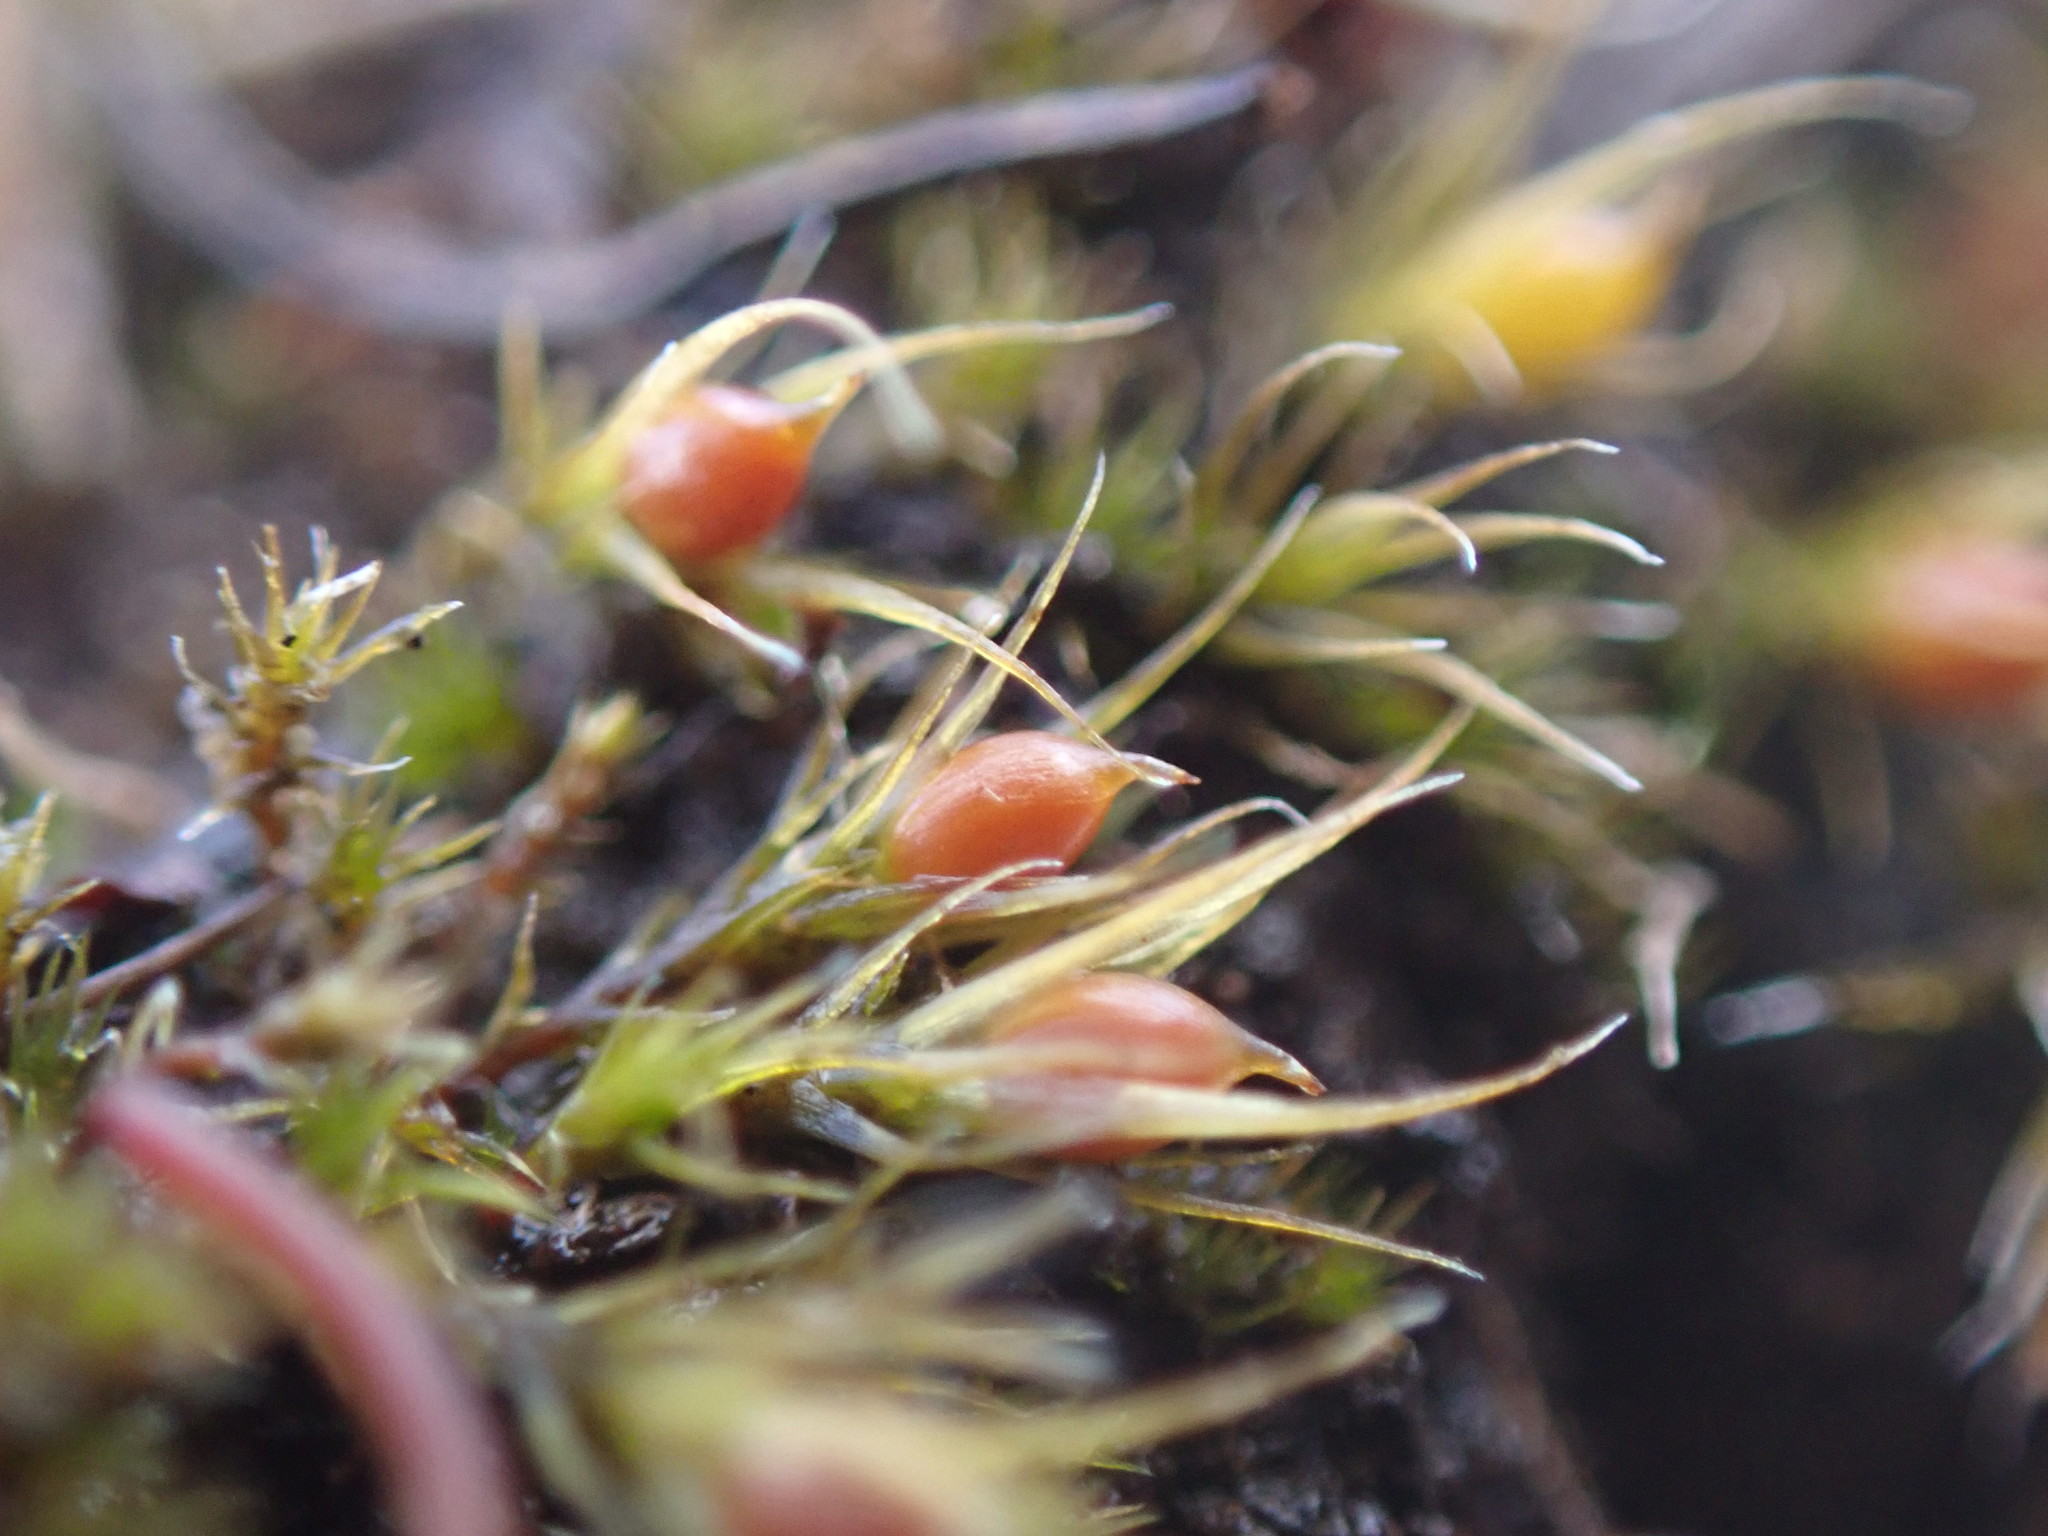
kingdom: Plantae
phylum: Bryophyta
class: Bryopsida
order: Dicranales
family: Ditrichaceae
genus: Pleuridium
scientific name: Pleuridium acuminatum
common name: Taper-leaved earth-moss
